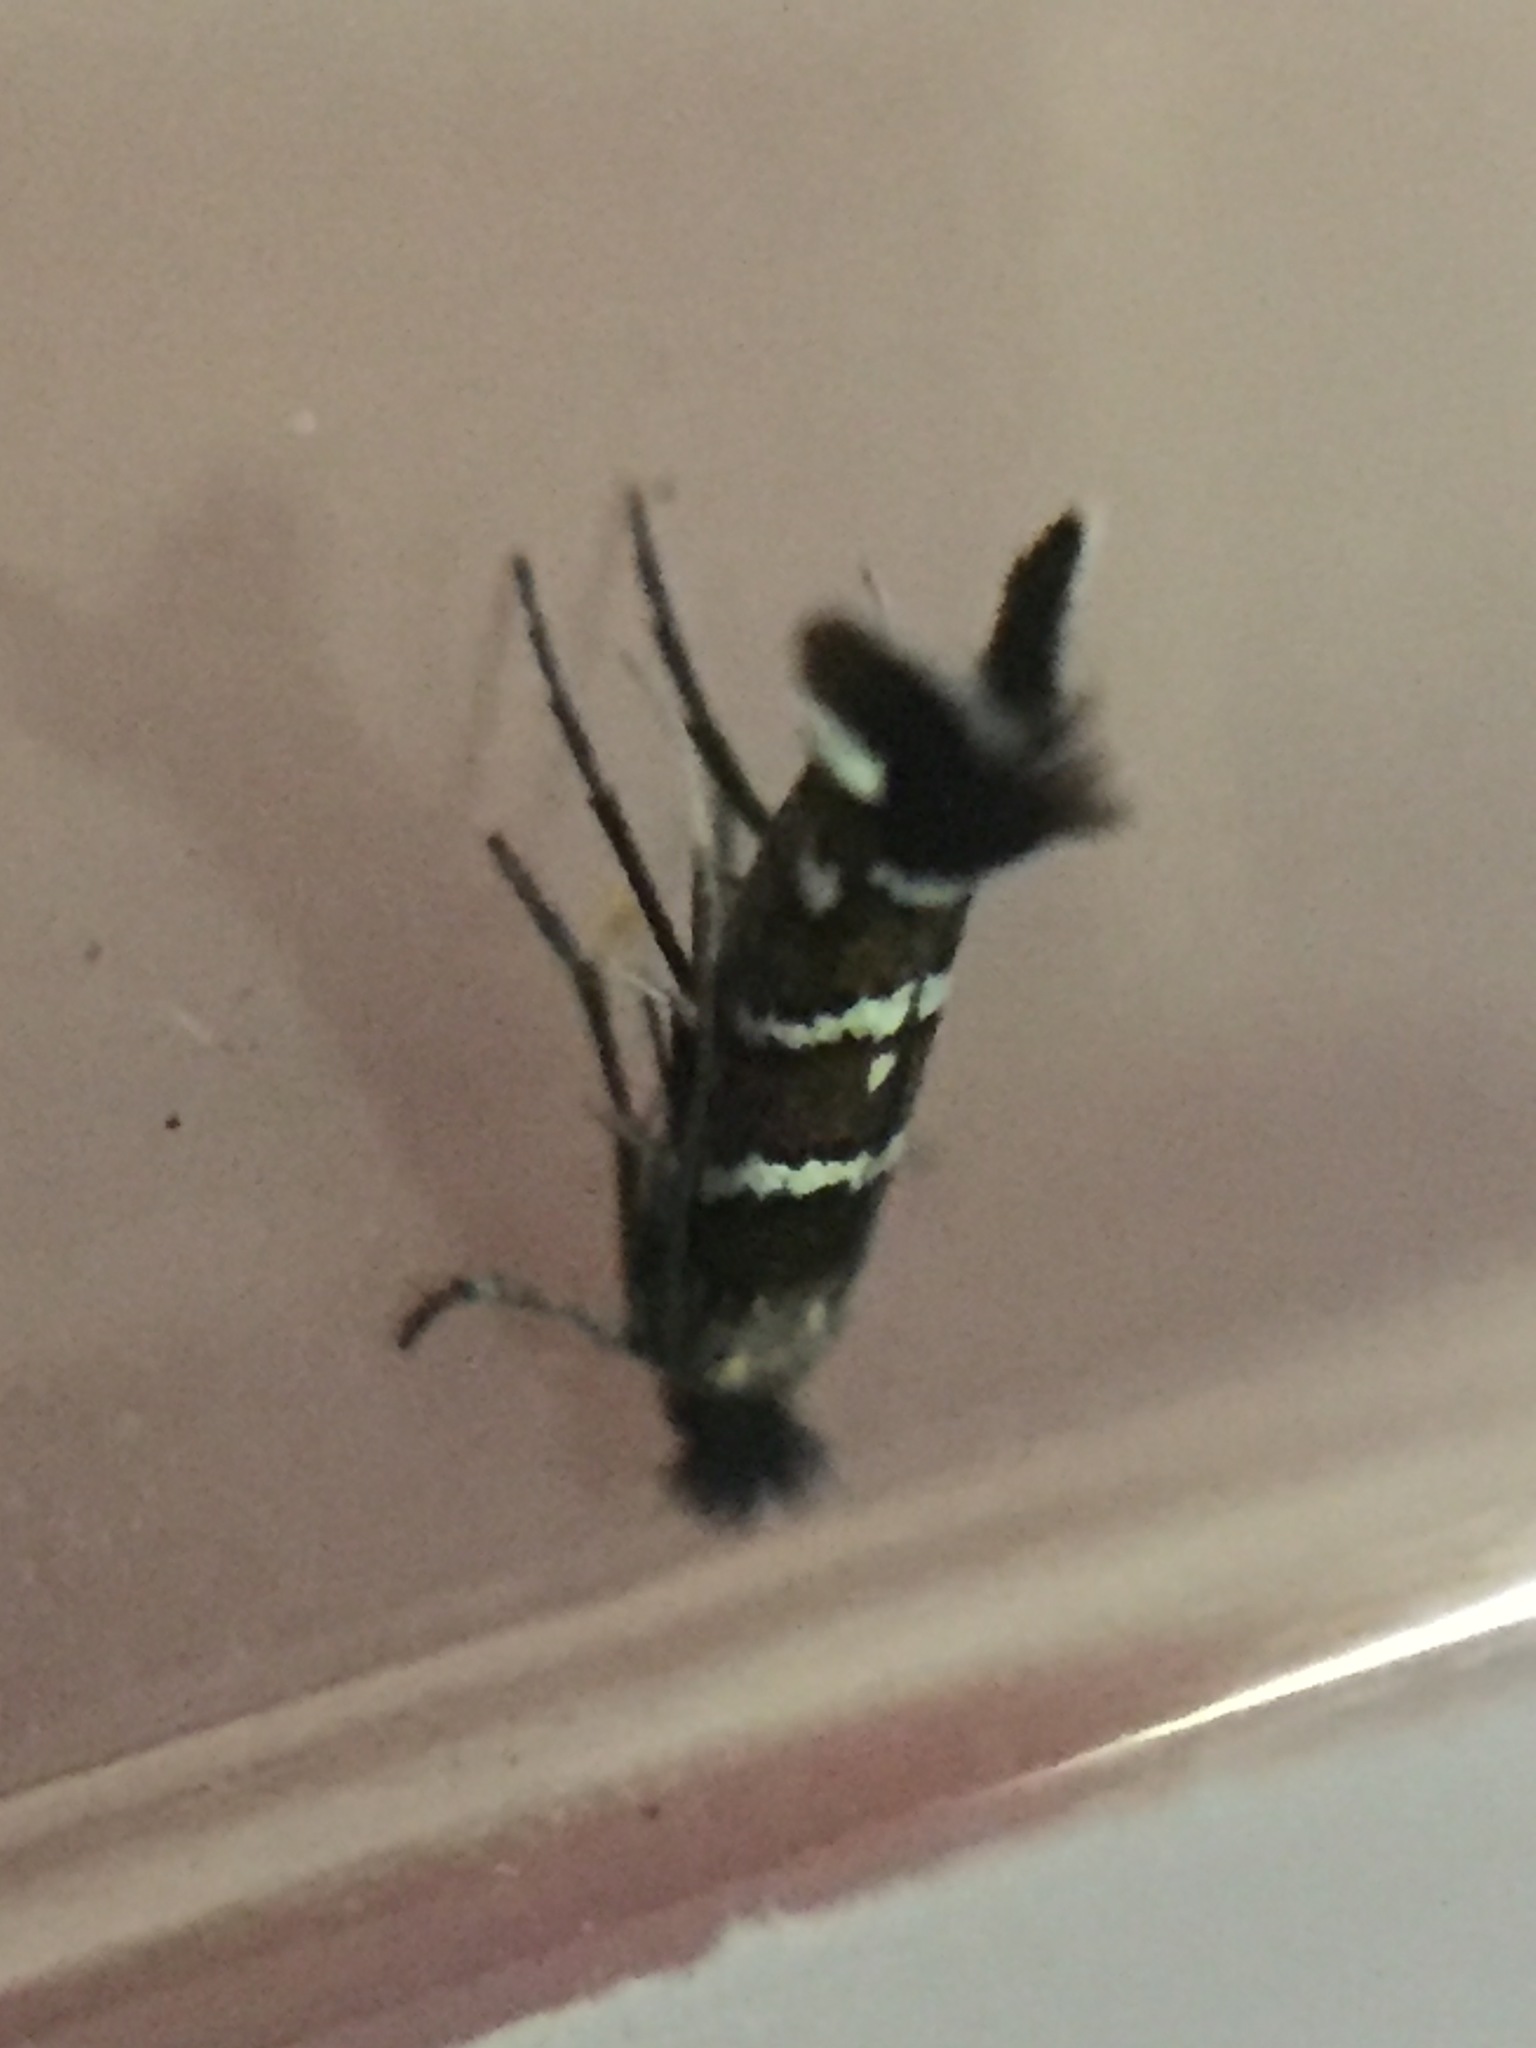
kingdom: Animalia
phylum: Arthropoda
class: Insecta
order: Lepidoptera
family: Gracillariidae
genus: Porphyrosela
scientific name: Porphyrosela hardenbergiella
